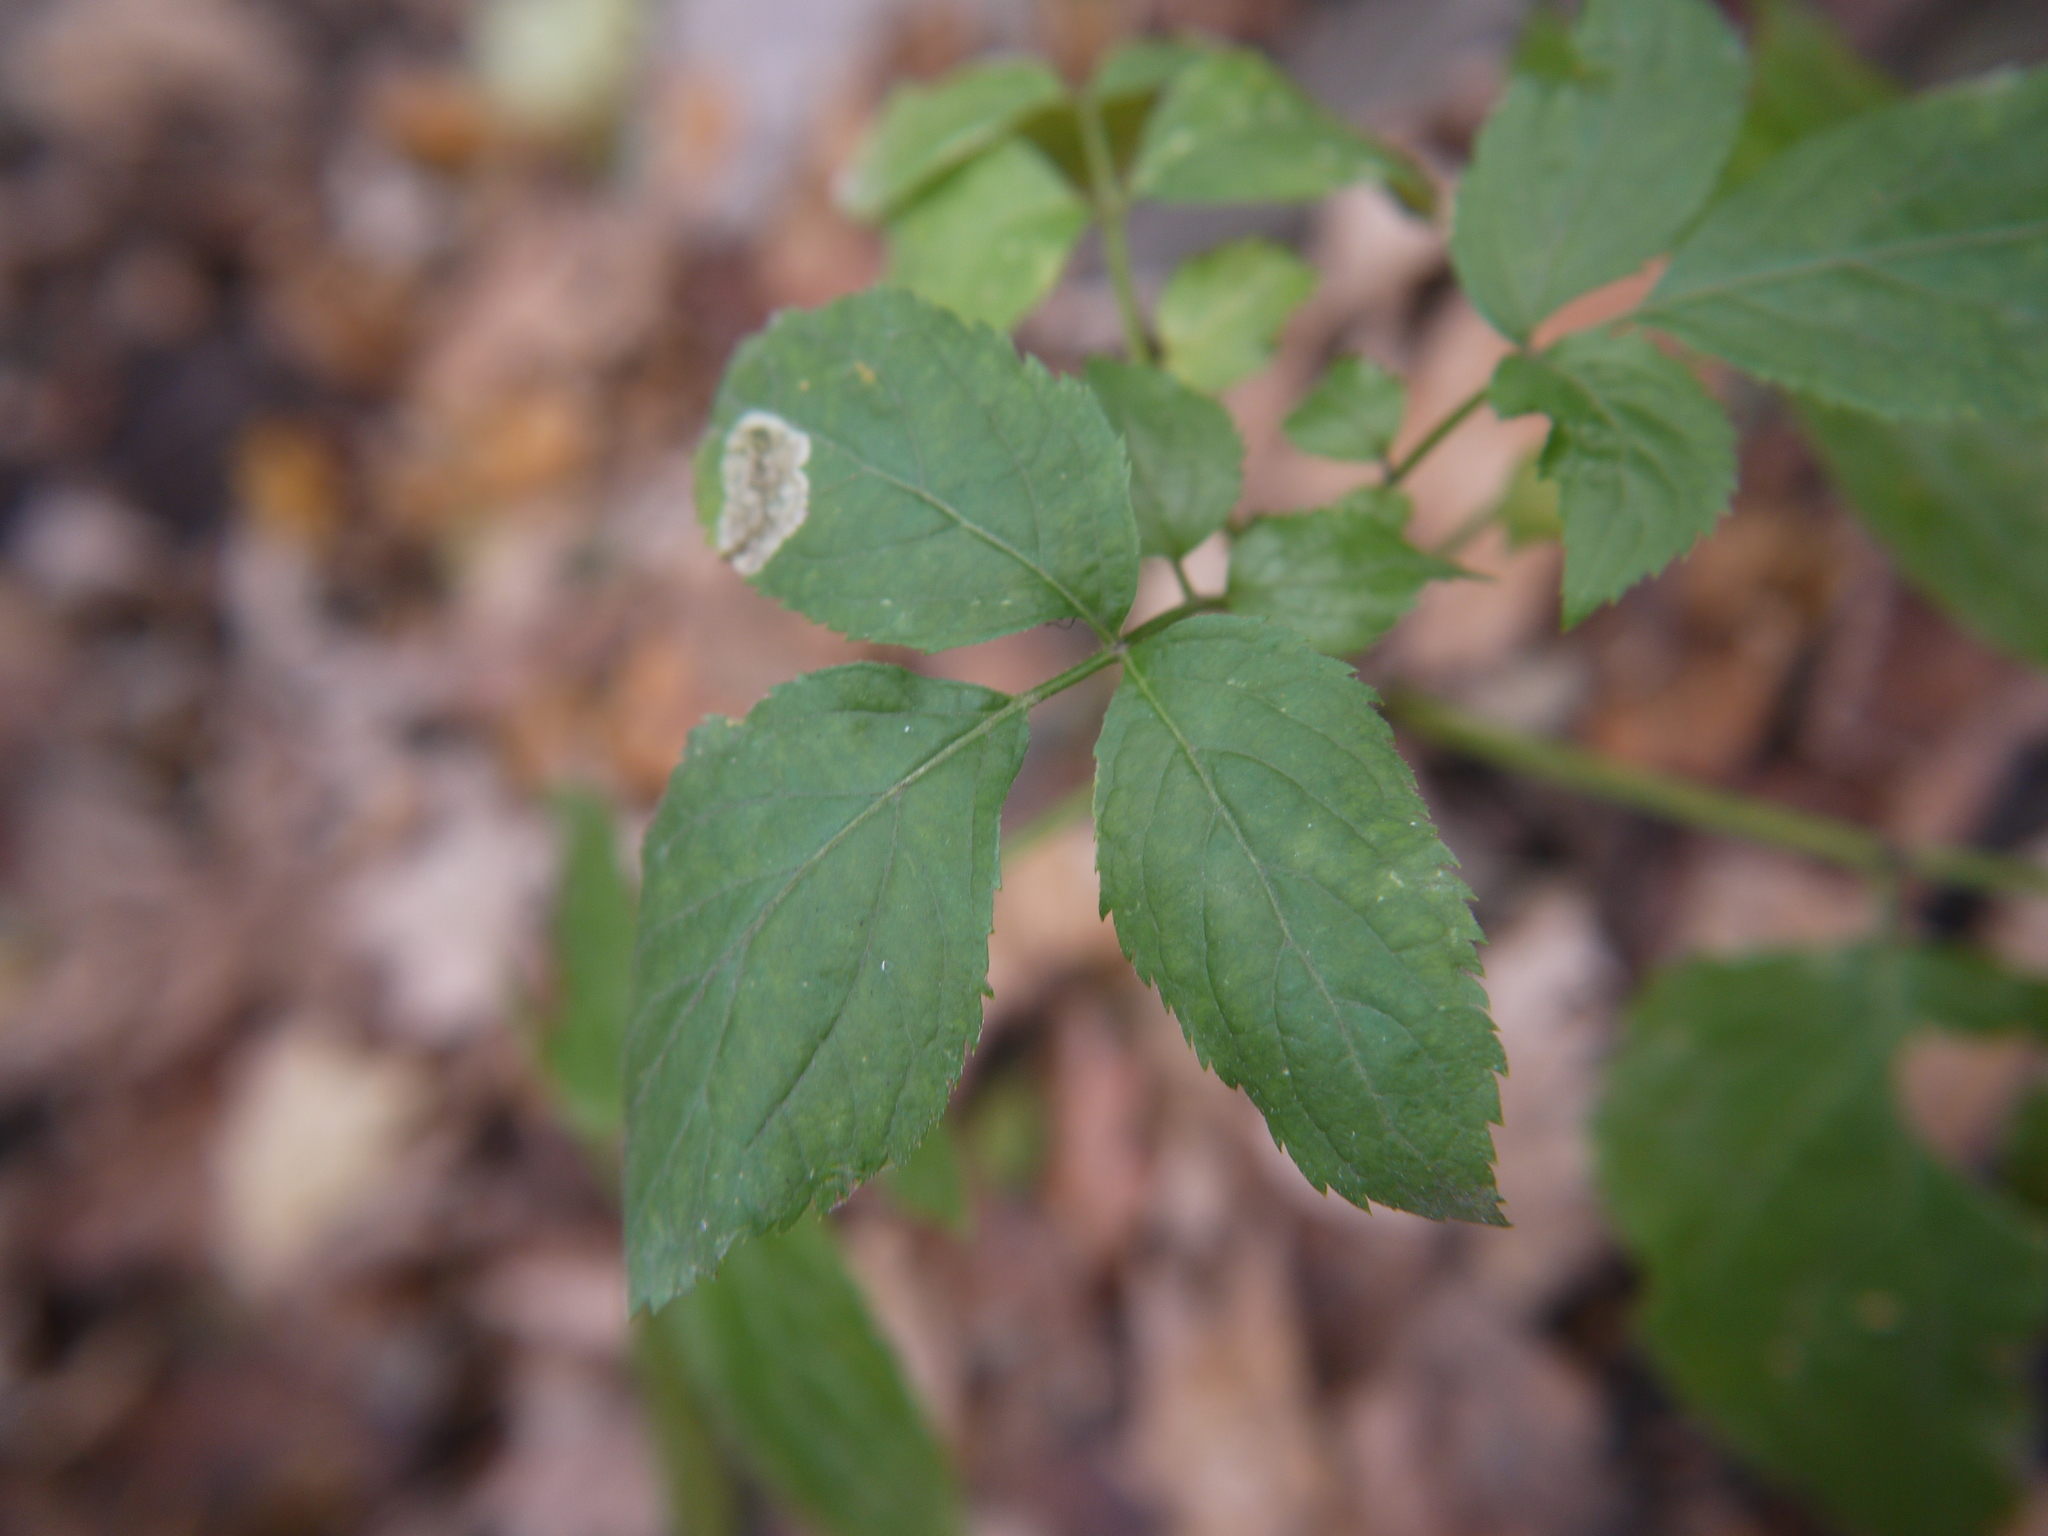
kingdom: Plantae
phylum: Tracheophyta
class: Magnoliopsida
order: Dipsacales
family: Viburnaceae
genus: Sambucus
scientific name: Sambucus nigra
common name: Elder
